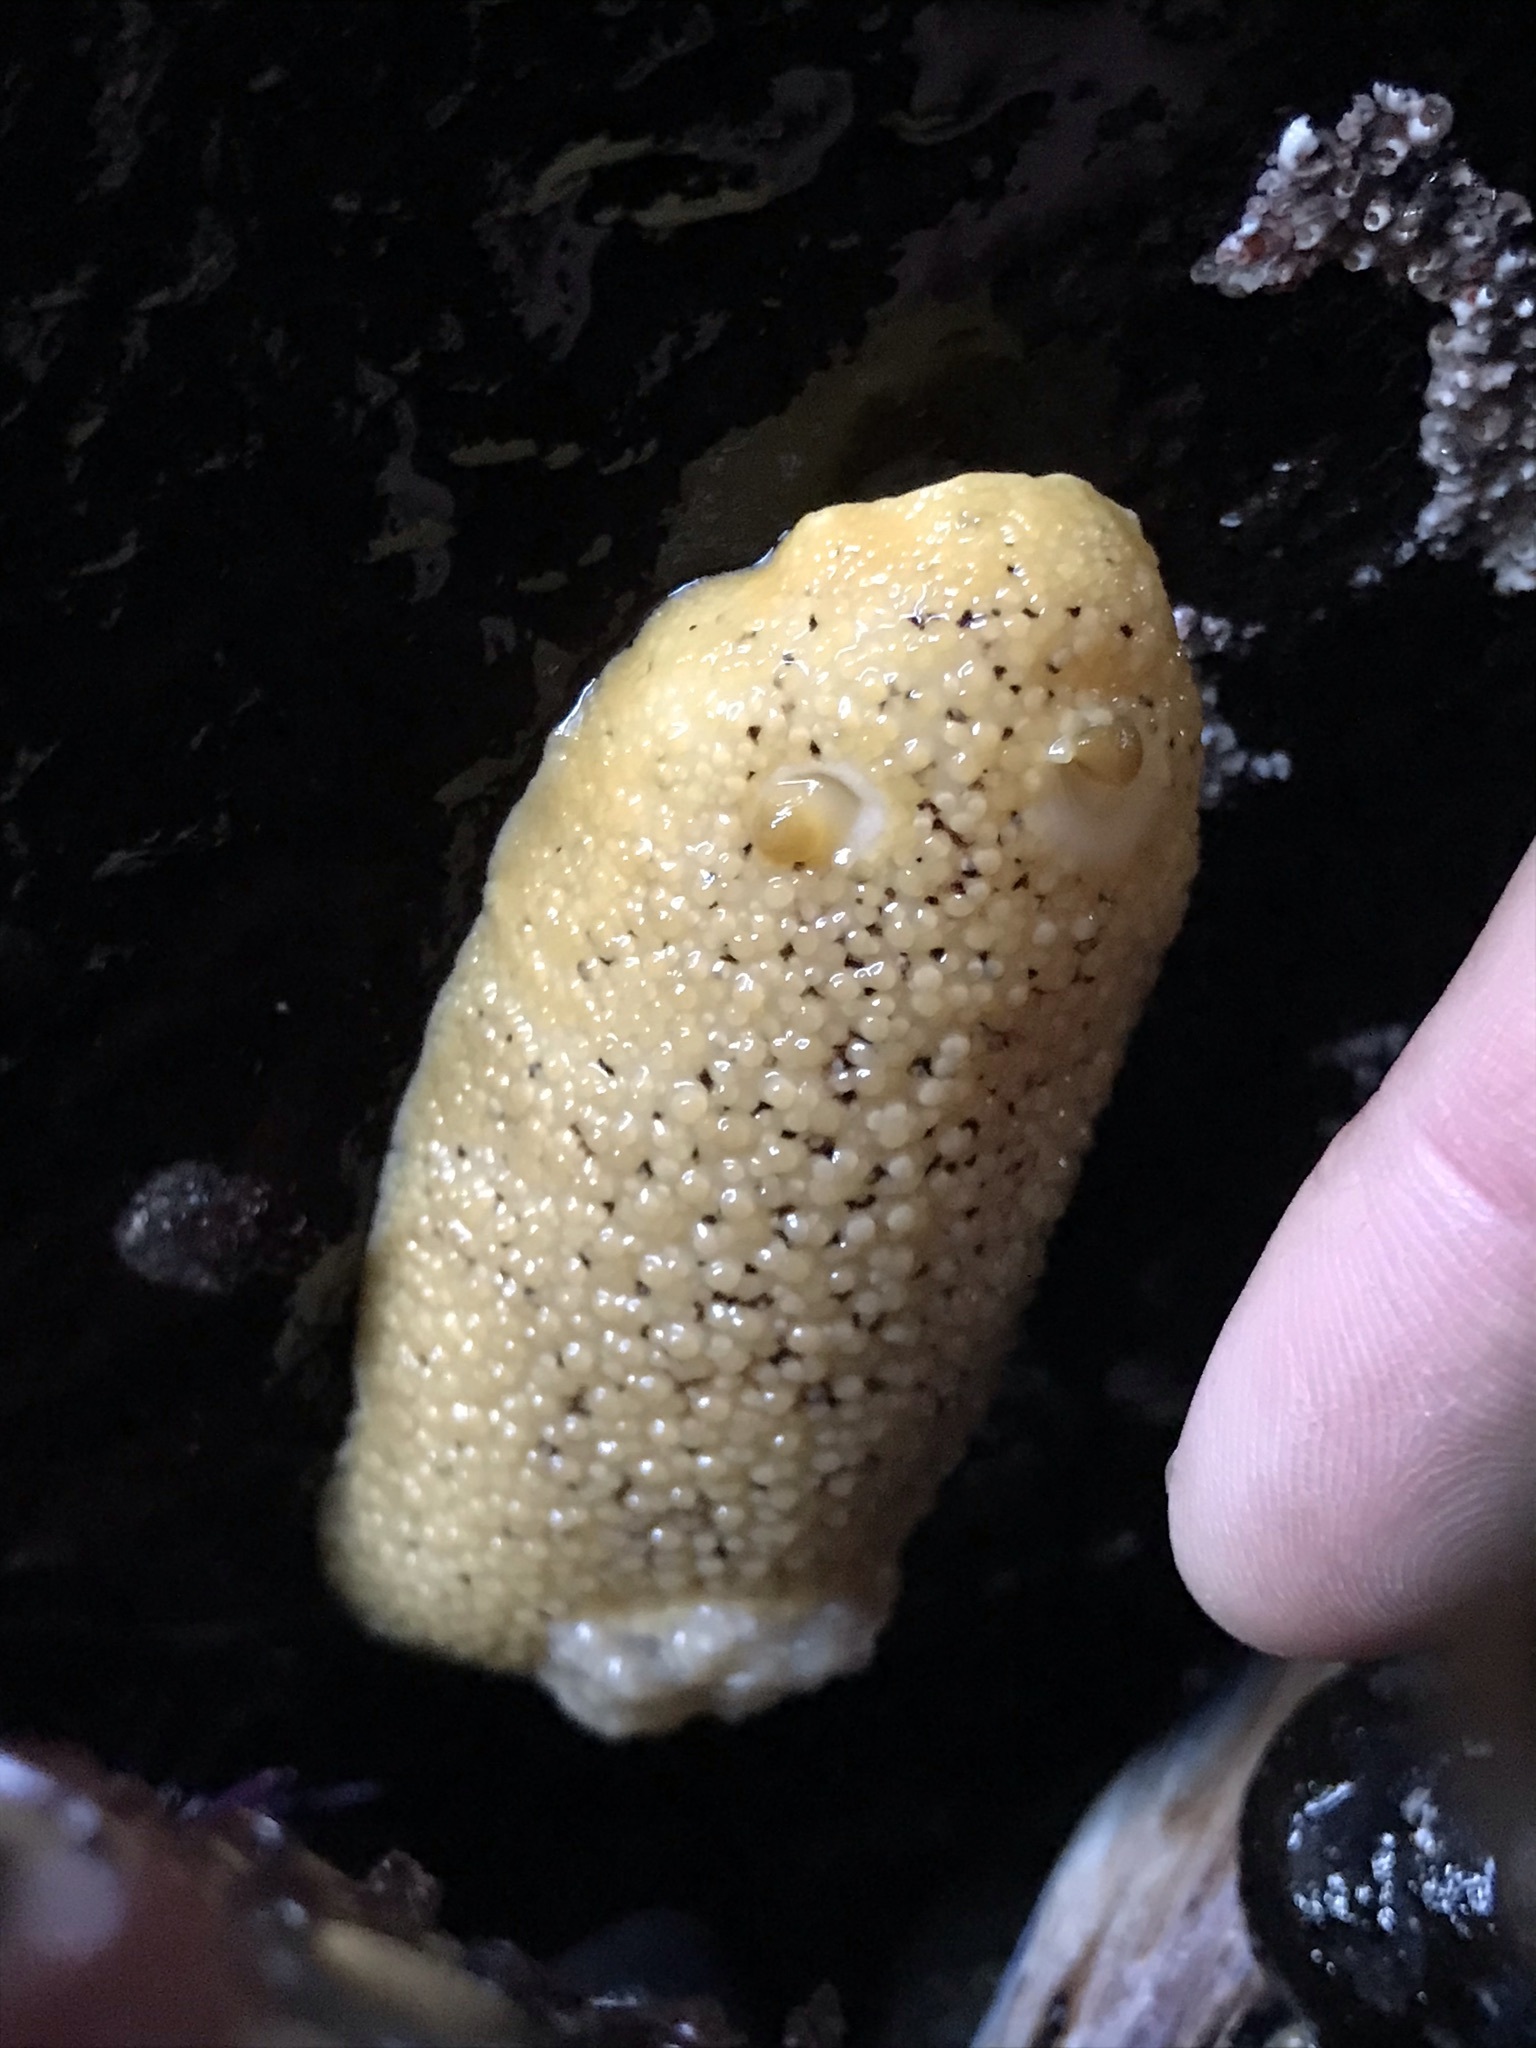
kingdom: Animalia
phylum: Mollusca
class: Gastropoda
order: Nudibranchia
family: Discodorididae
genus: Peltodoris
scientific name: Peltodoris nobilis
